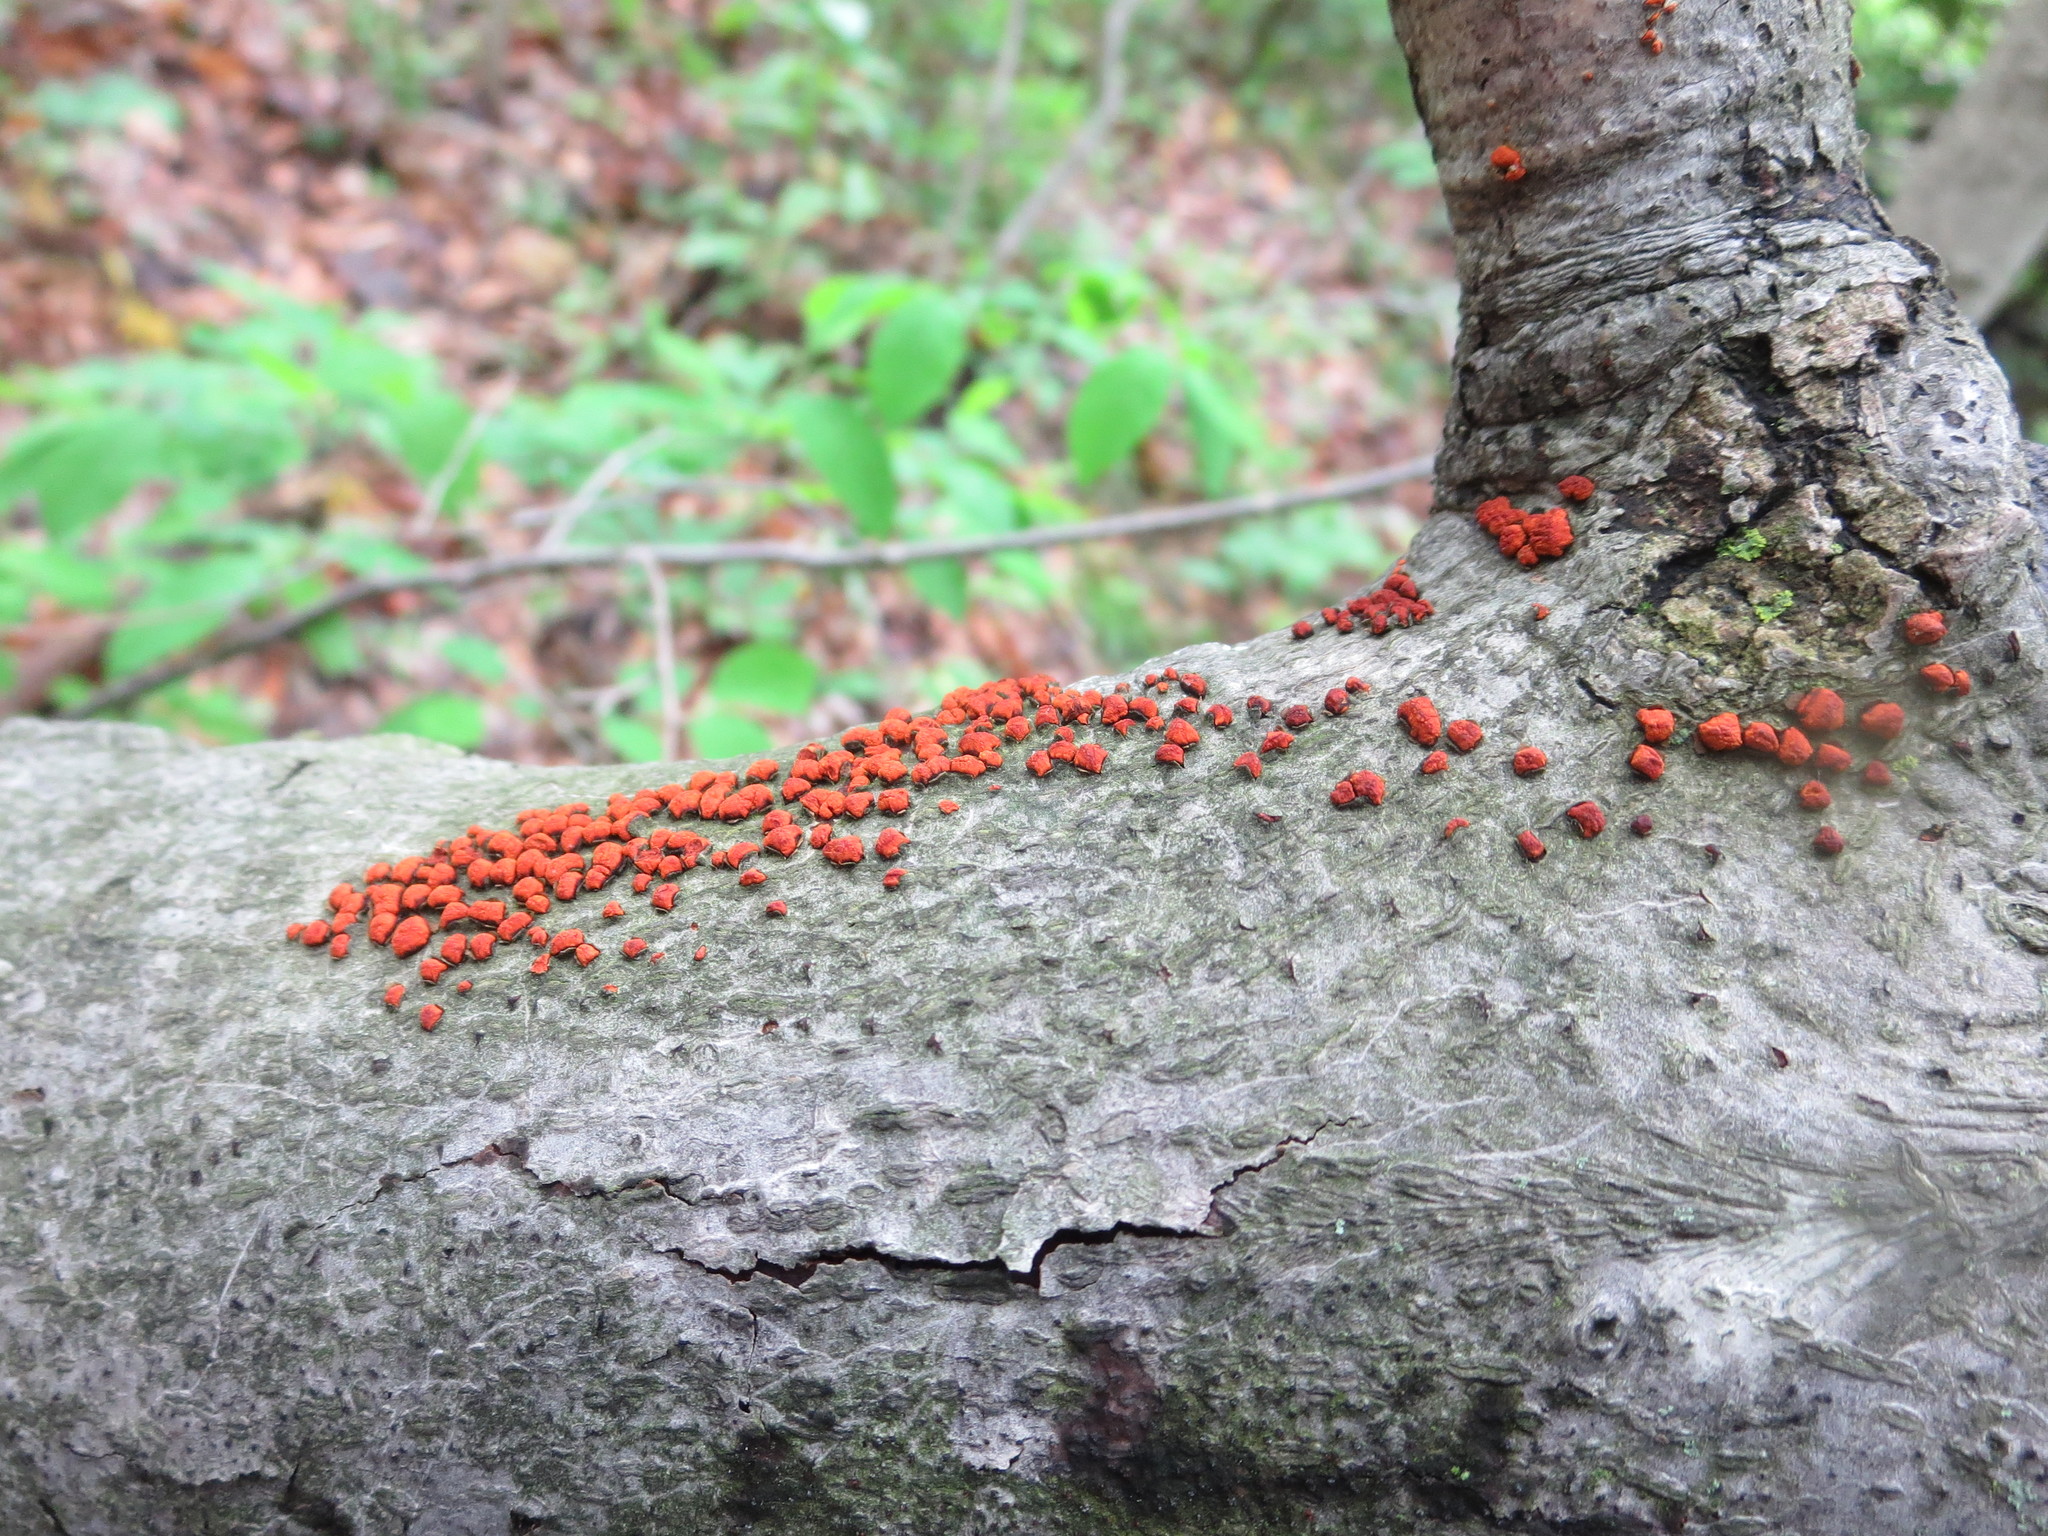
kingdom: Fungi
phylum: Basidiomycota
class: Agaricomycetes
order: Russulales
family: Peniophoraceae
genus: Peniophora
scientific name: Peniophora rufa
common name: Red tree brain fungus
